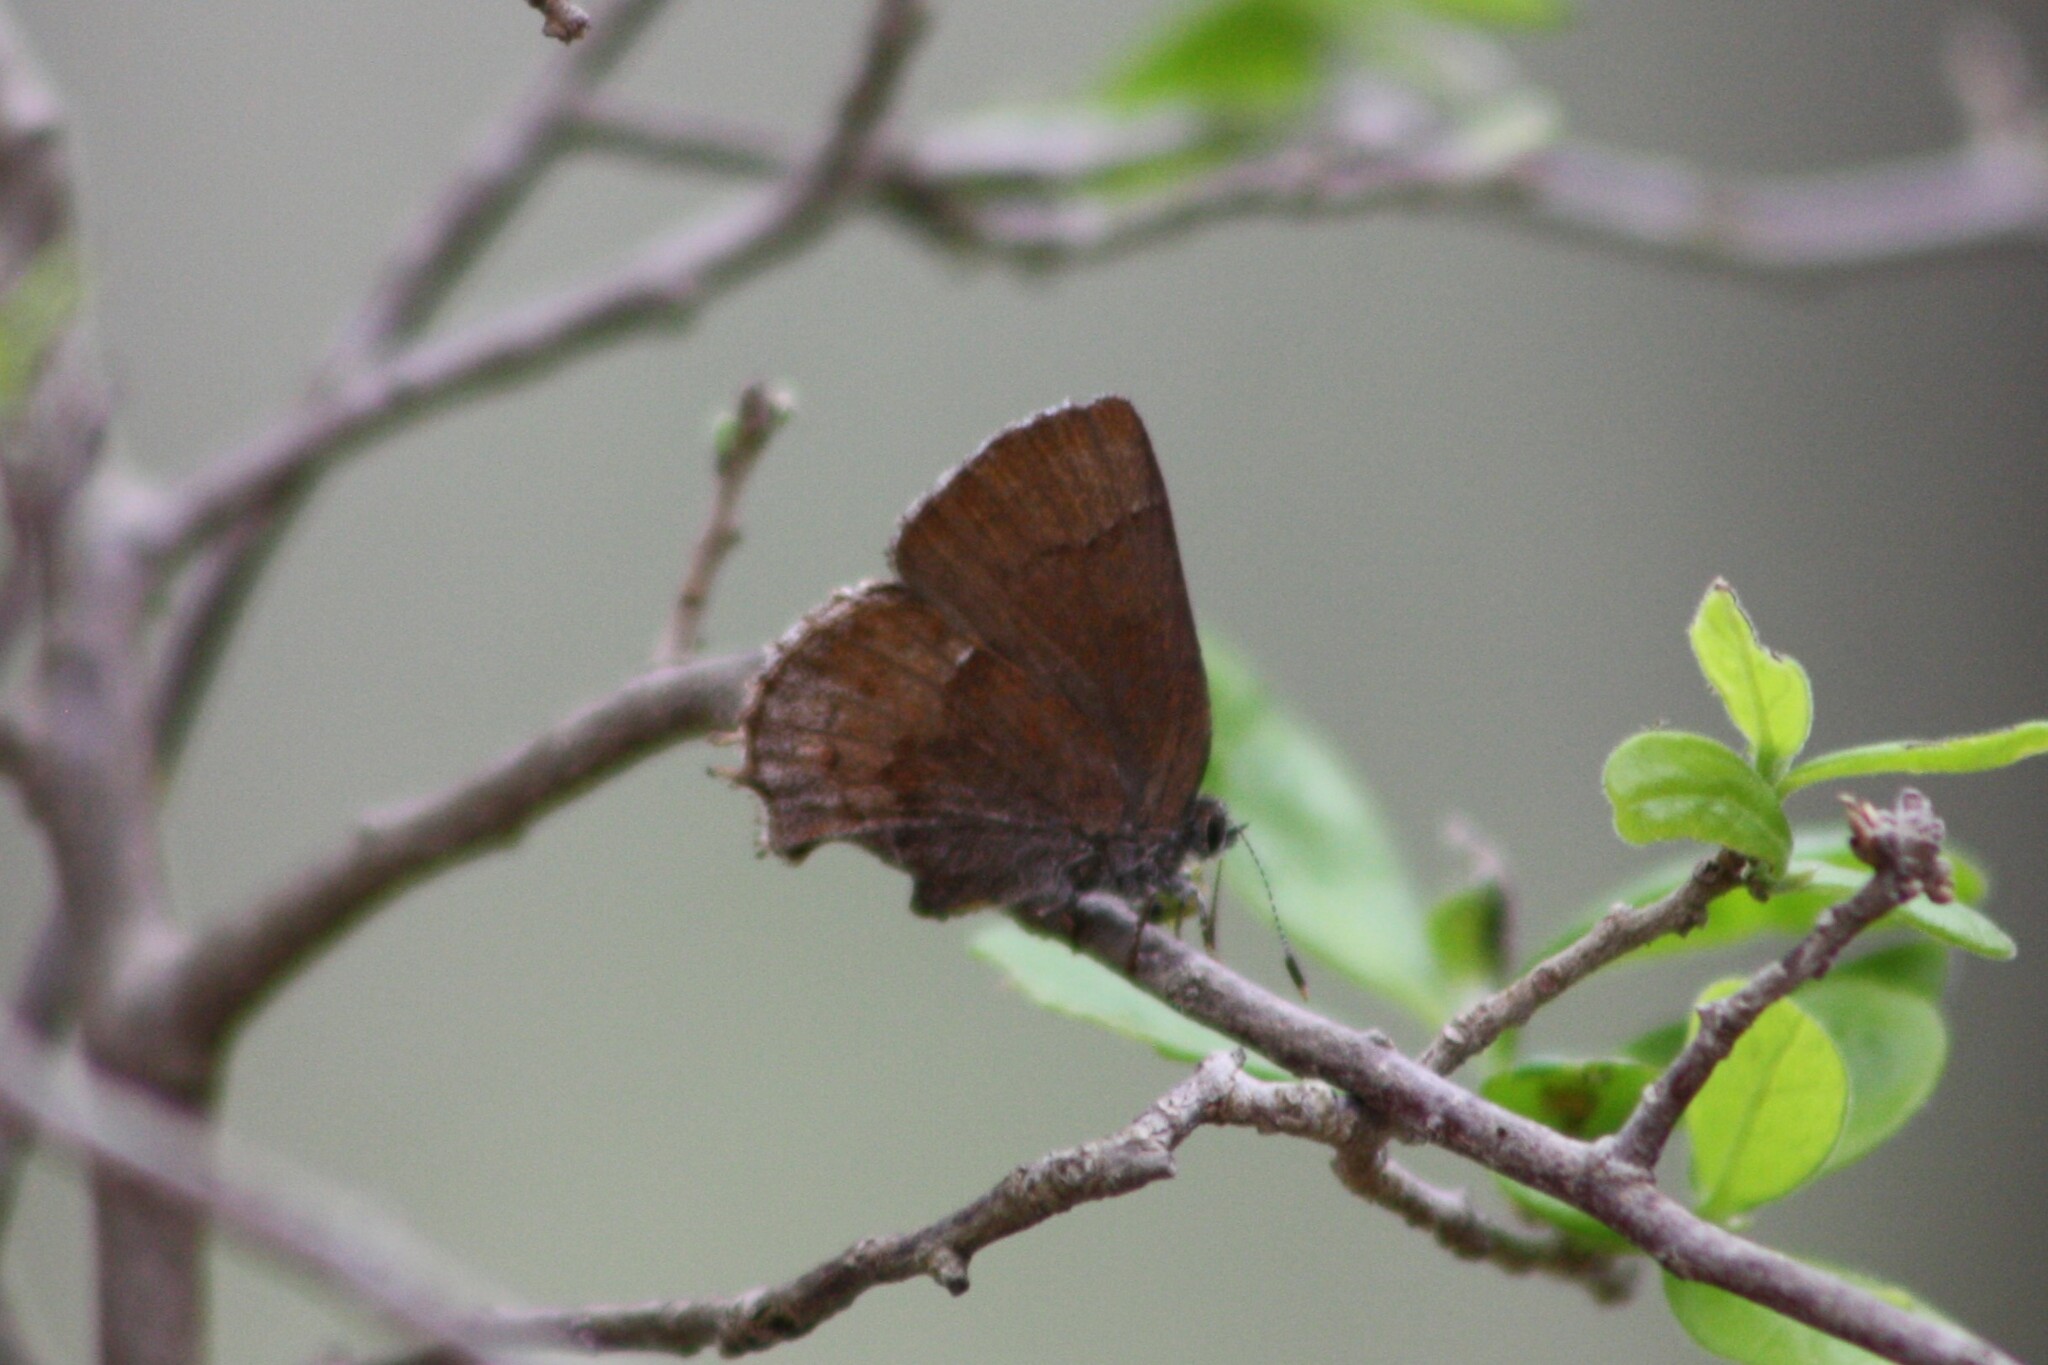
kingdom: Animalia
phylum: Arthropoda
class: Insecta
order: Lepidoptera
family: Lycaenidae
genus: Incisalia
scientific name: Incisalia henrici
